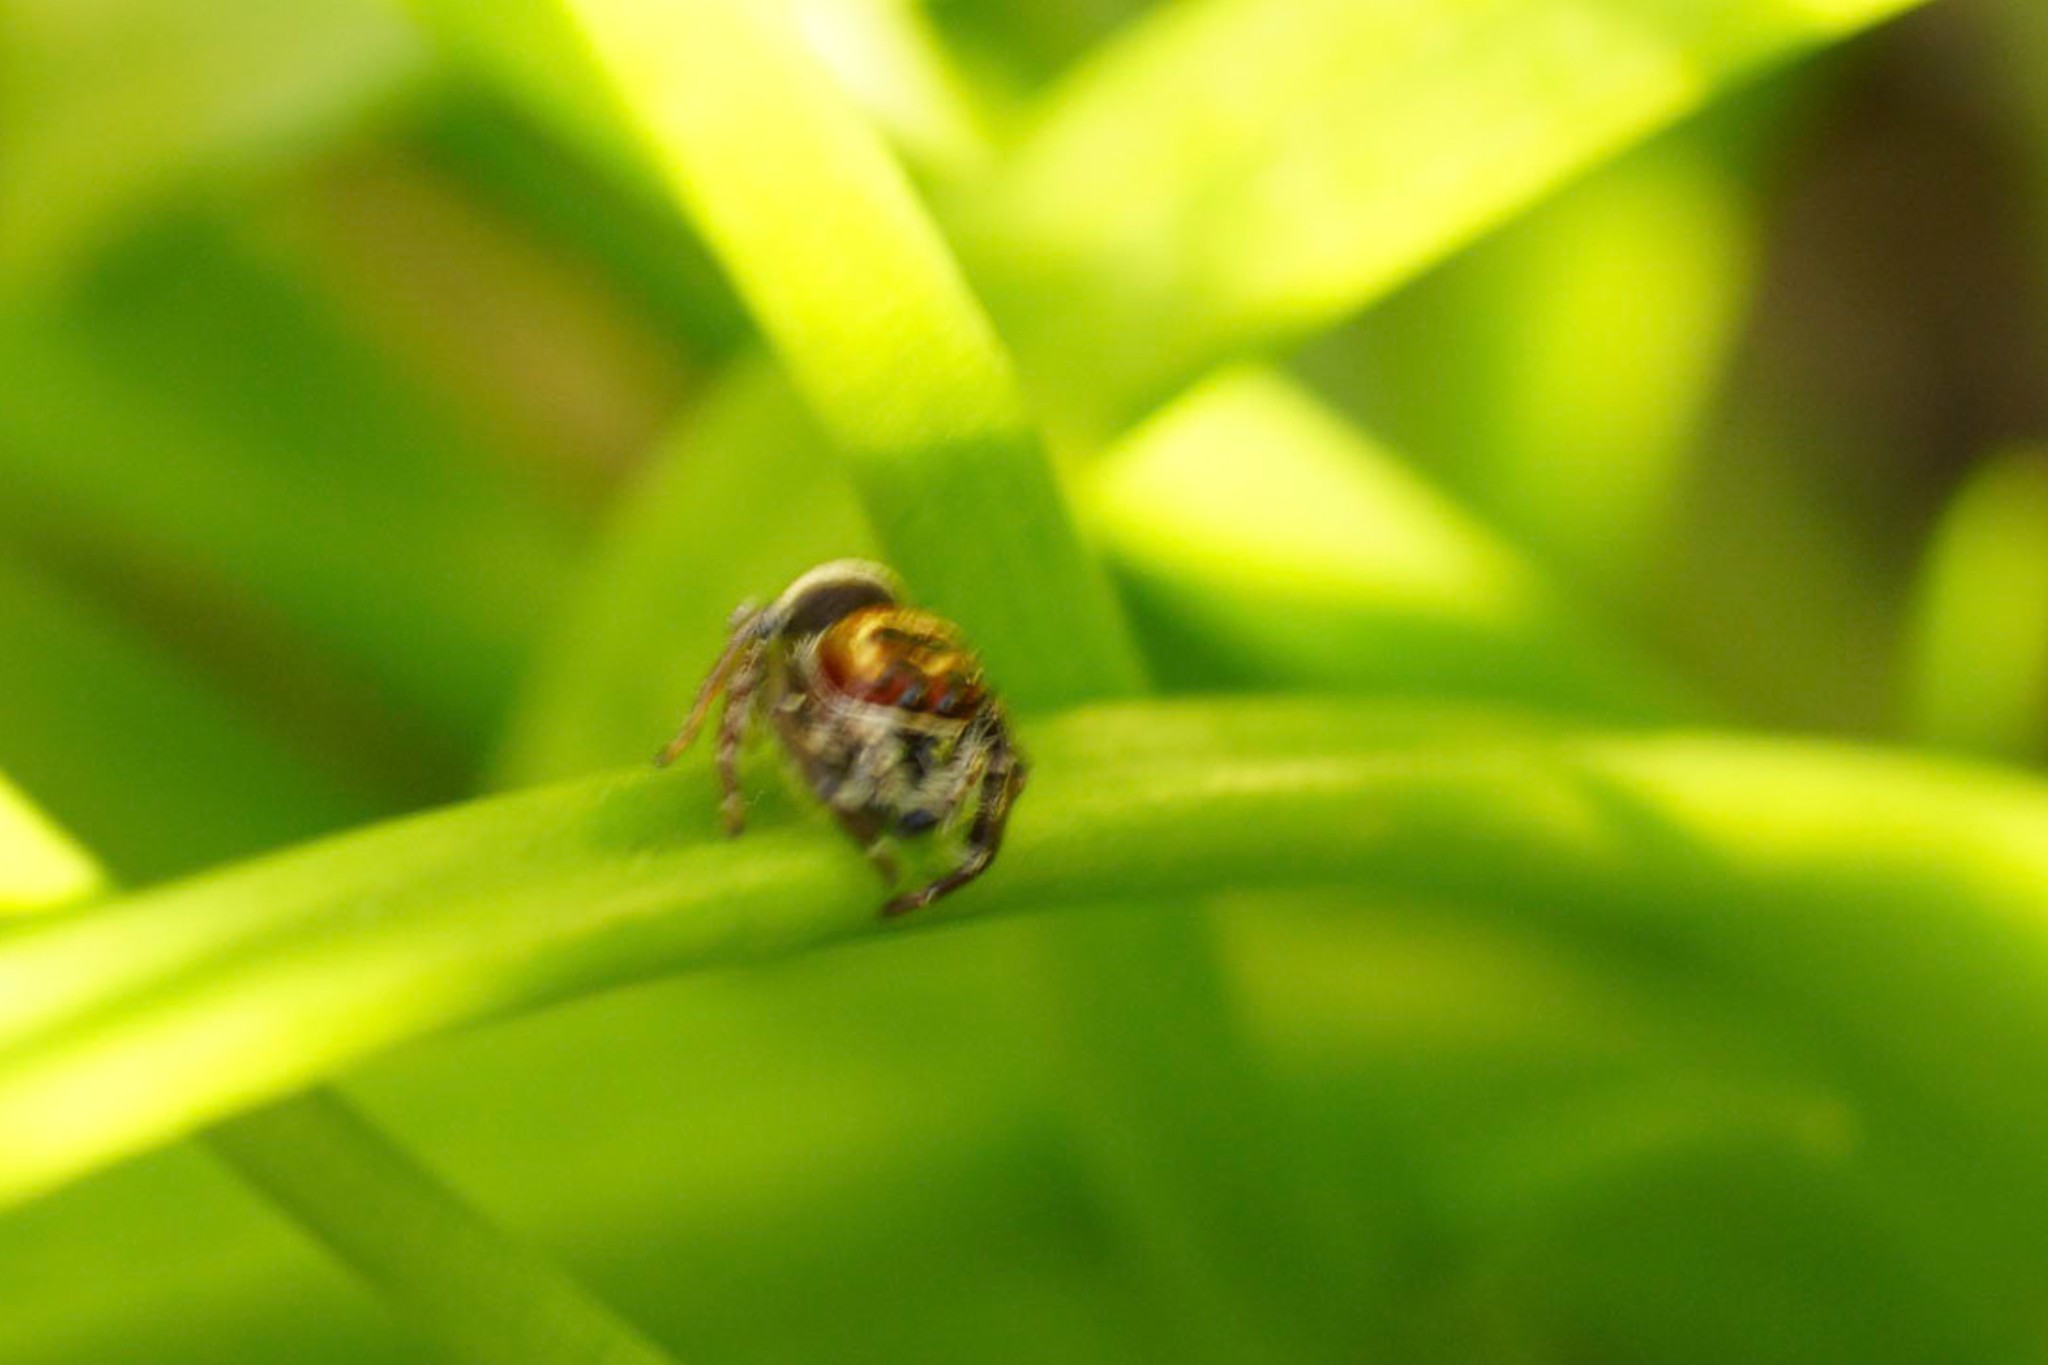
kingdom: Animalia
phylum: Arthropoda
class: Arachnida
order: Araneae
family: Salticidae
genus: Opisthoncus
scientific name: Opisthoncus
